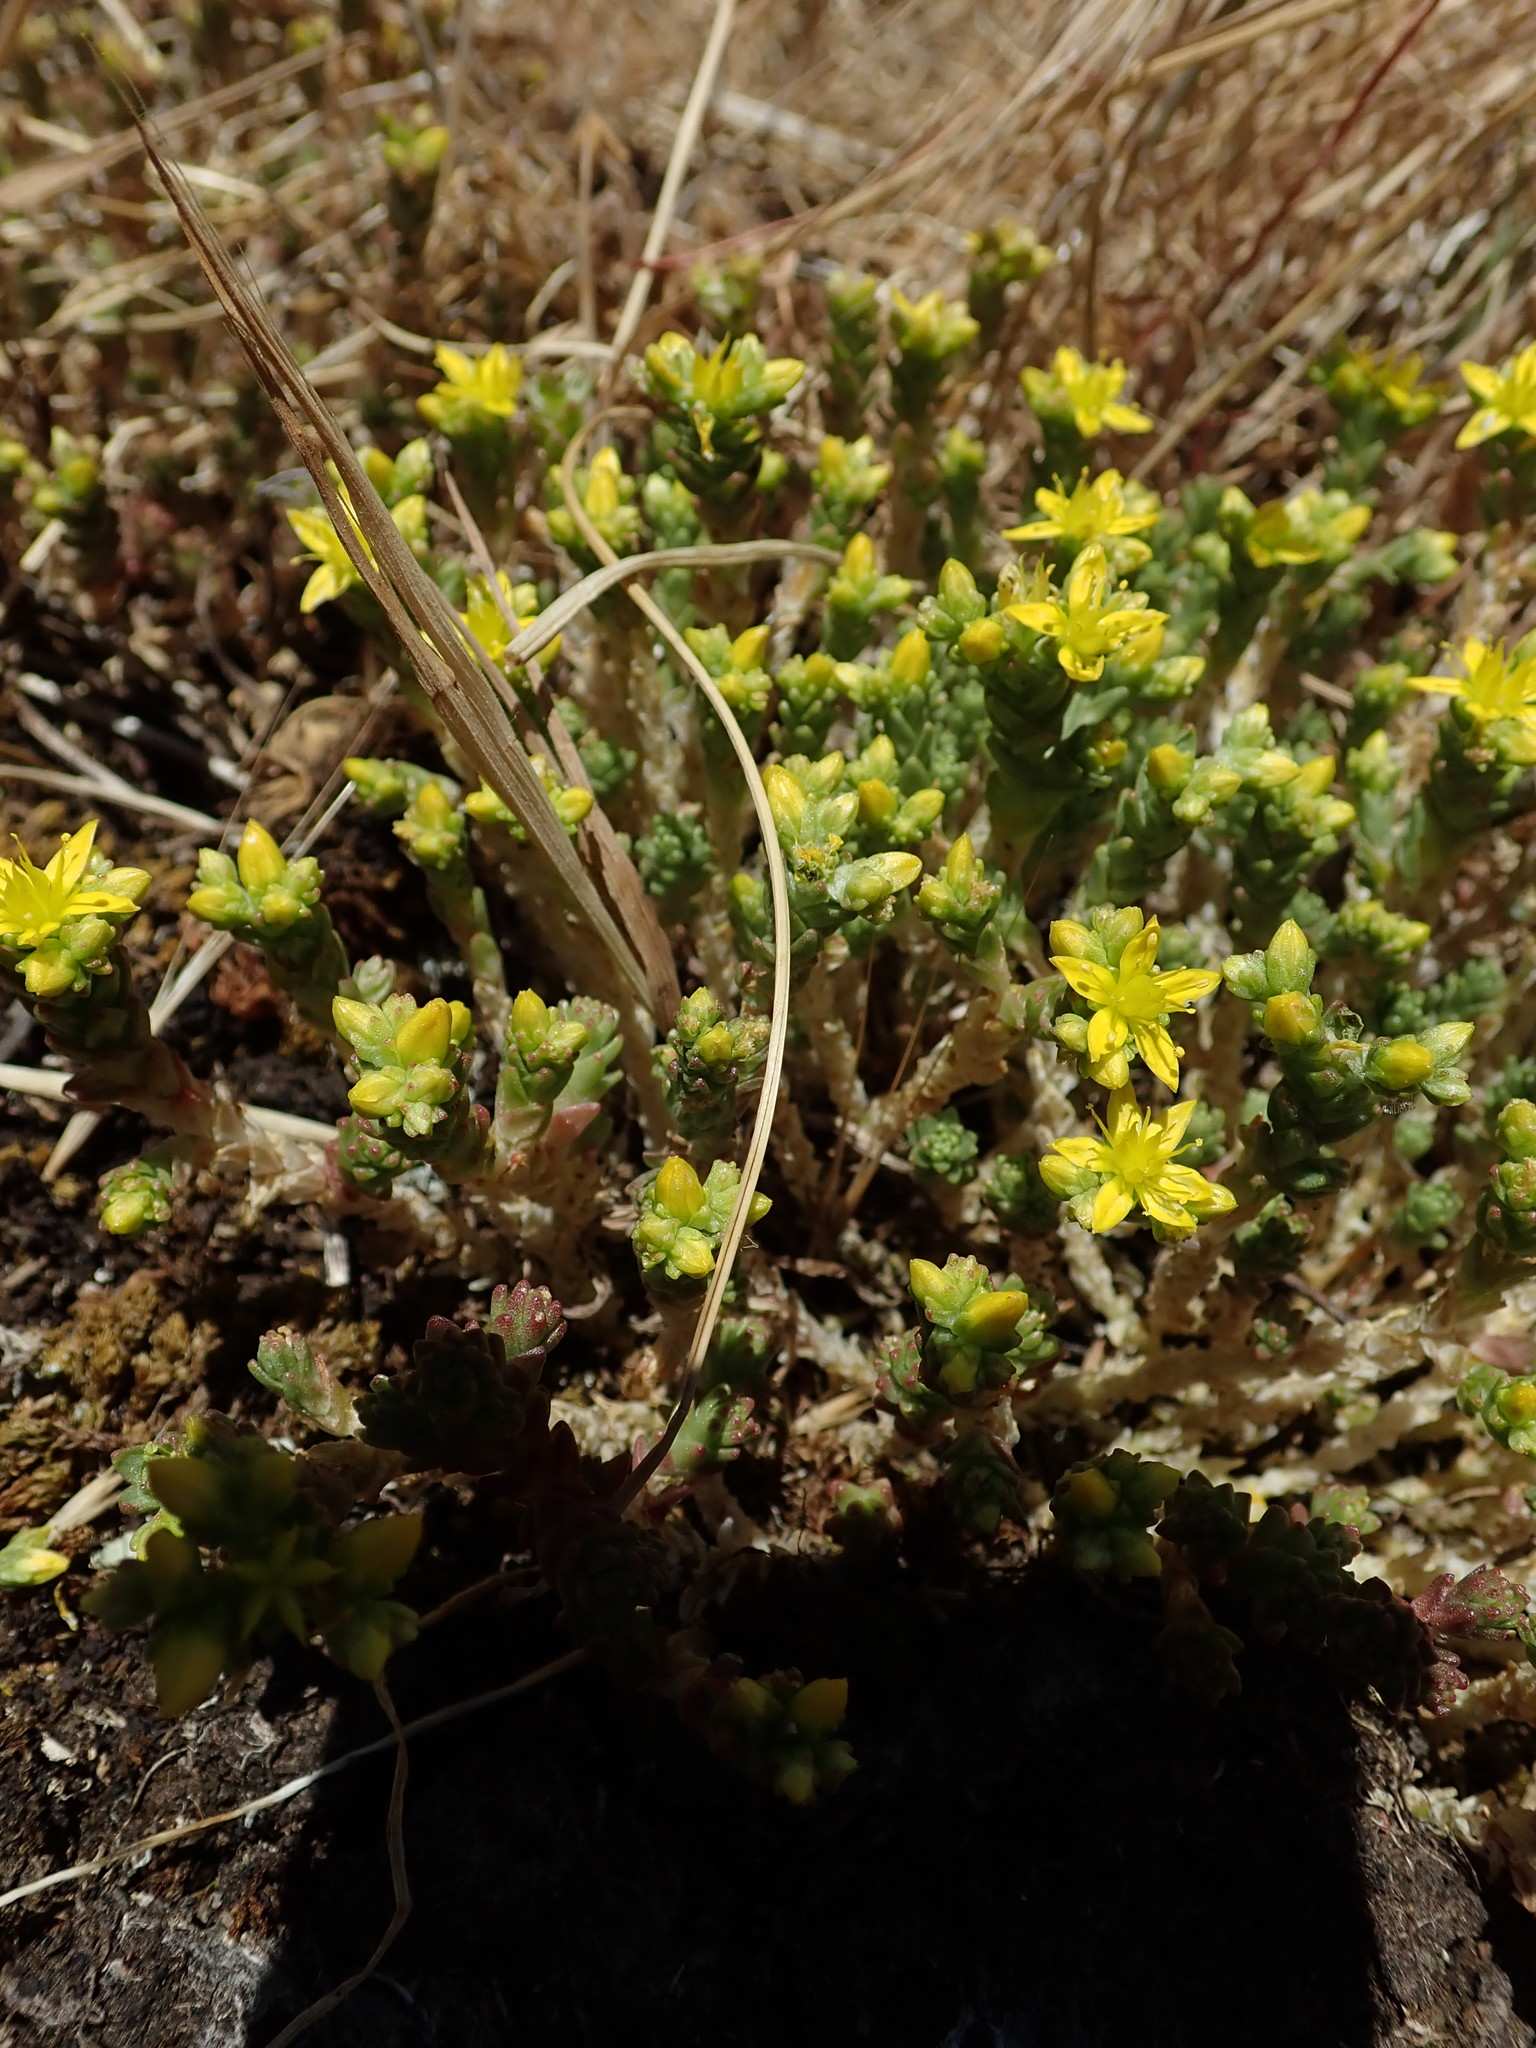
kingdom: Plantae
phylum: Tracheophyta
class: Magnoliopsida
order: Saxifragales
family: Crassulaceae
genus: Sedum
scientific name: Sedum acre
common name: Biting stonecrop
